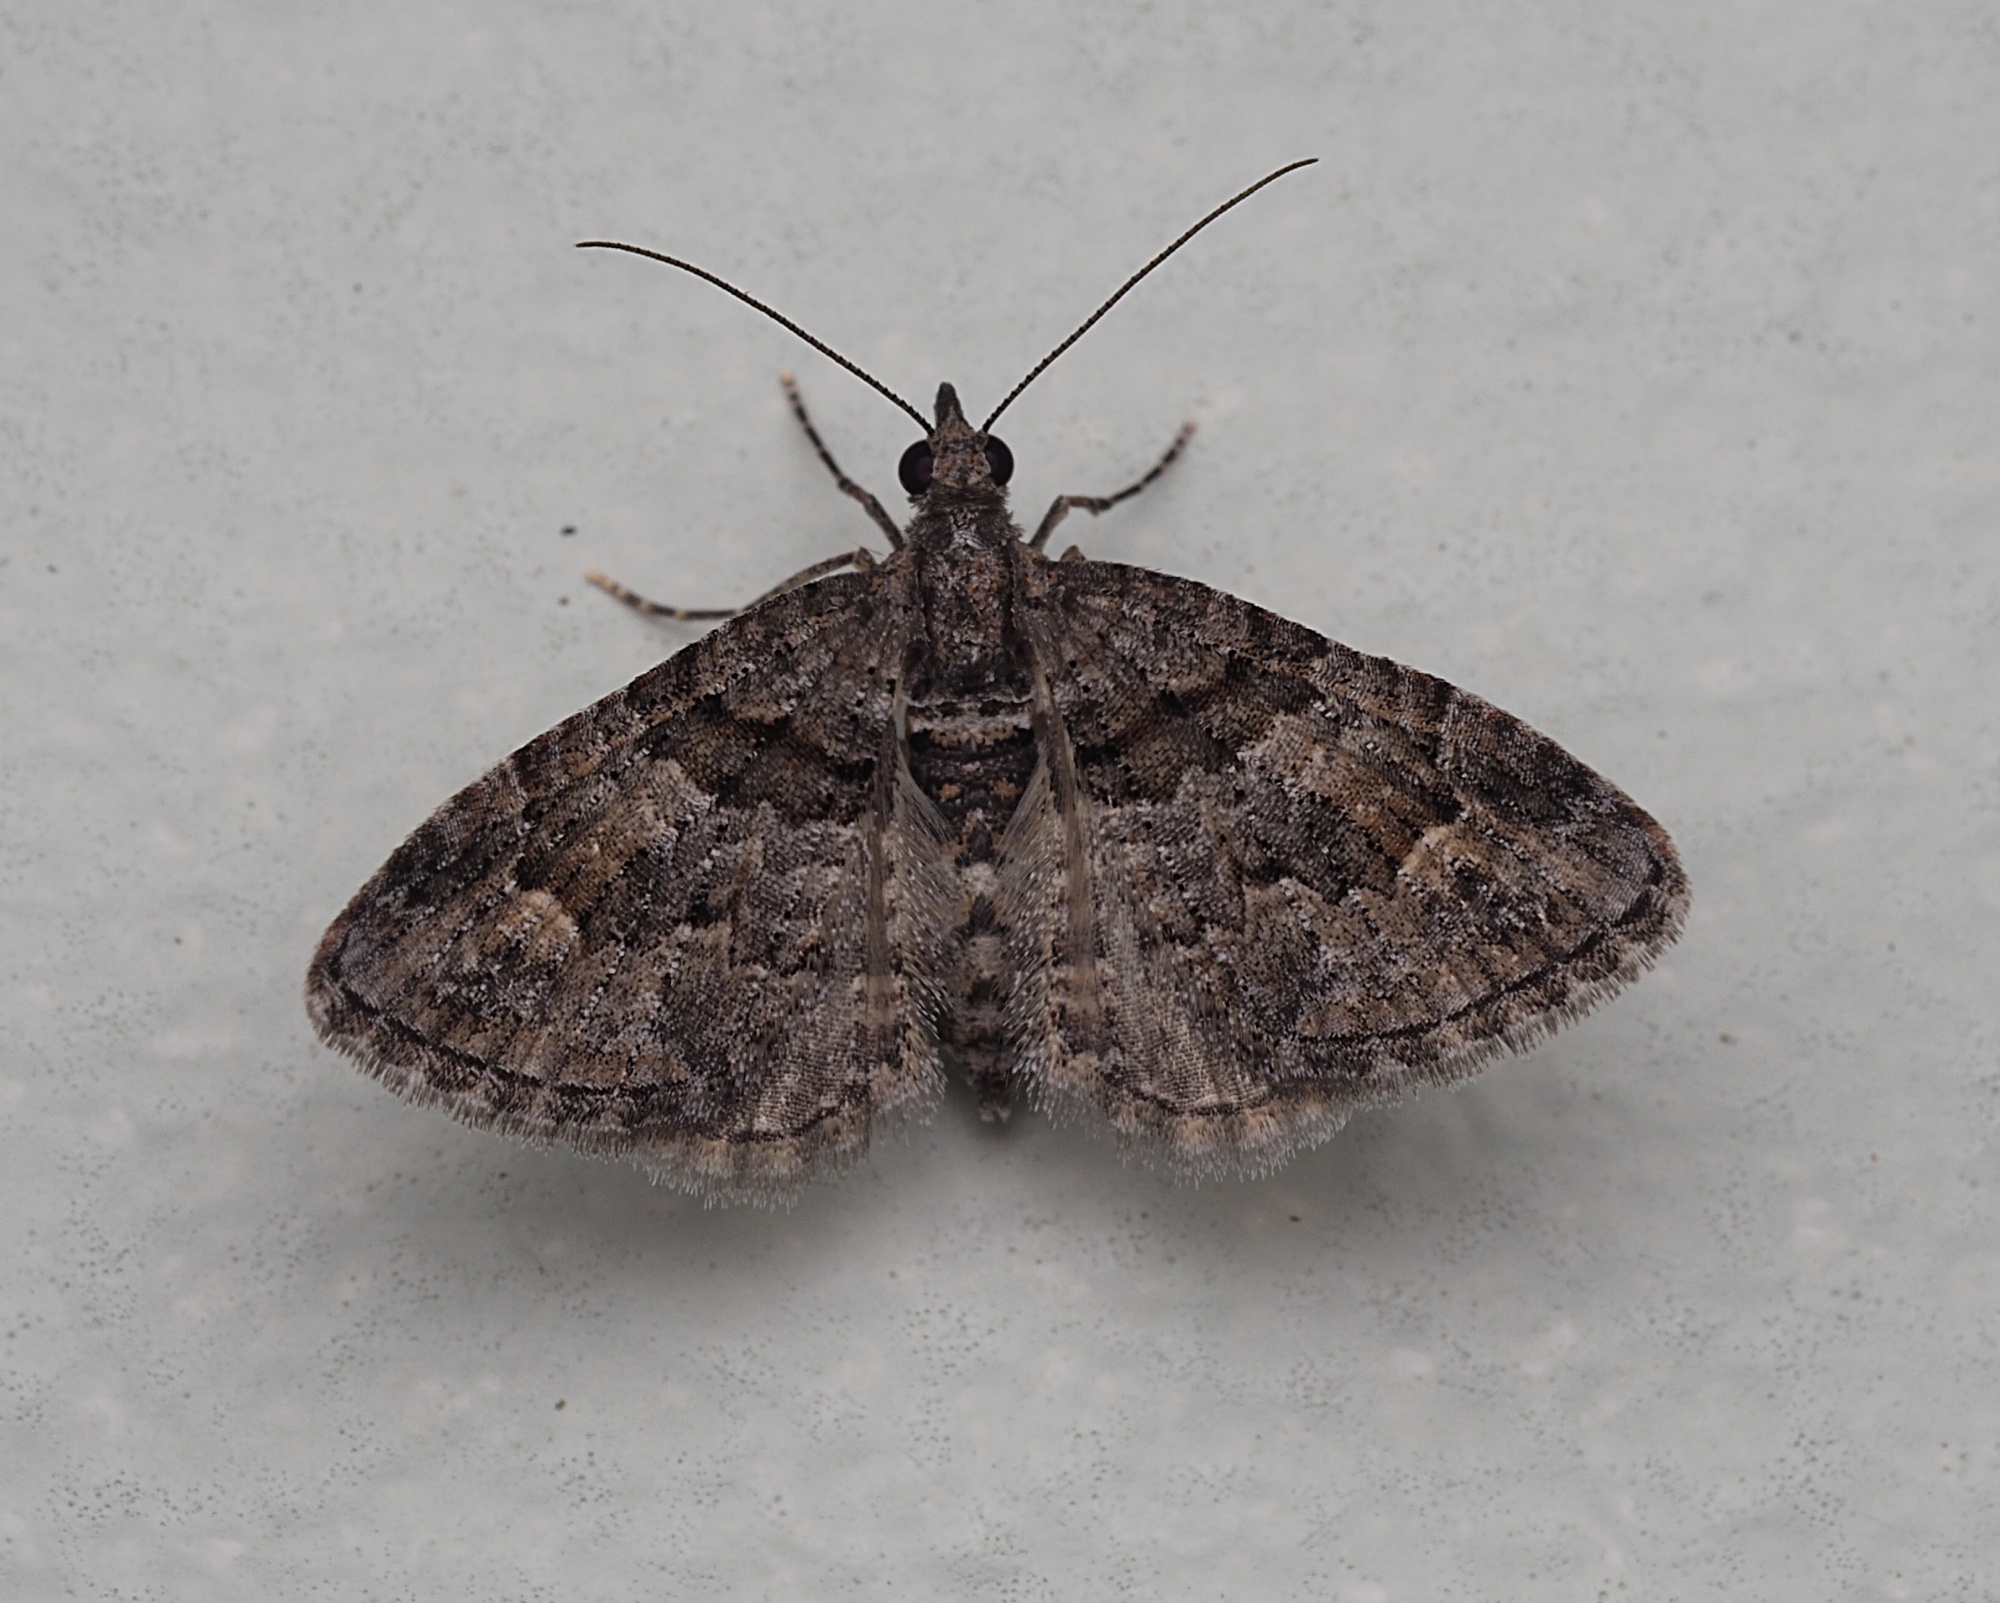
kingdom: Animalia
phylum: Arthropoda
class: Insecta
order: Lepidoptera
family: Geometridae
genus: Phrissogonus
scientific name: Phrissogonus laticostata
